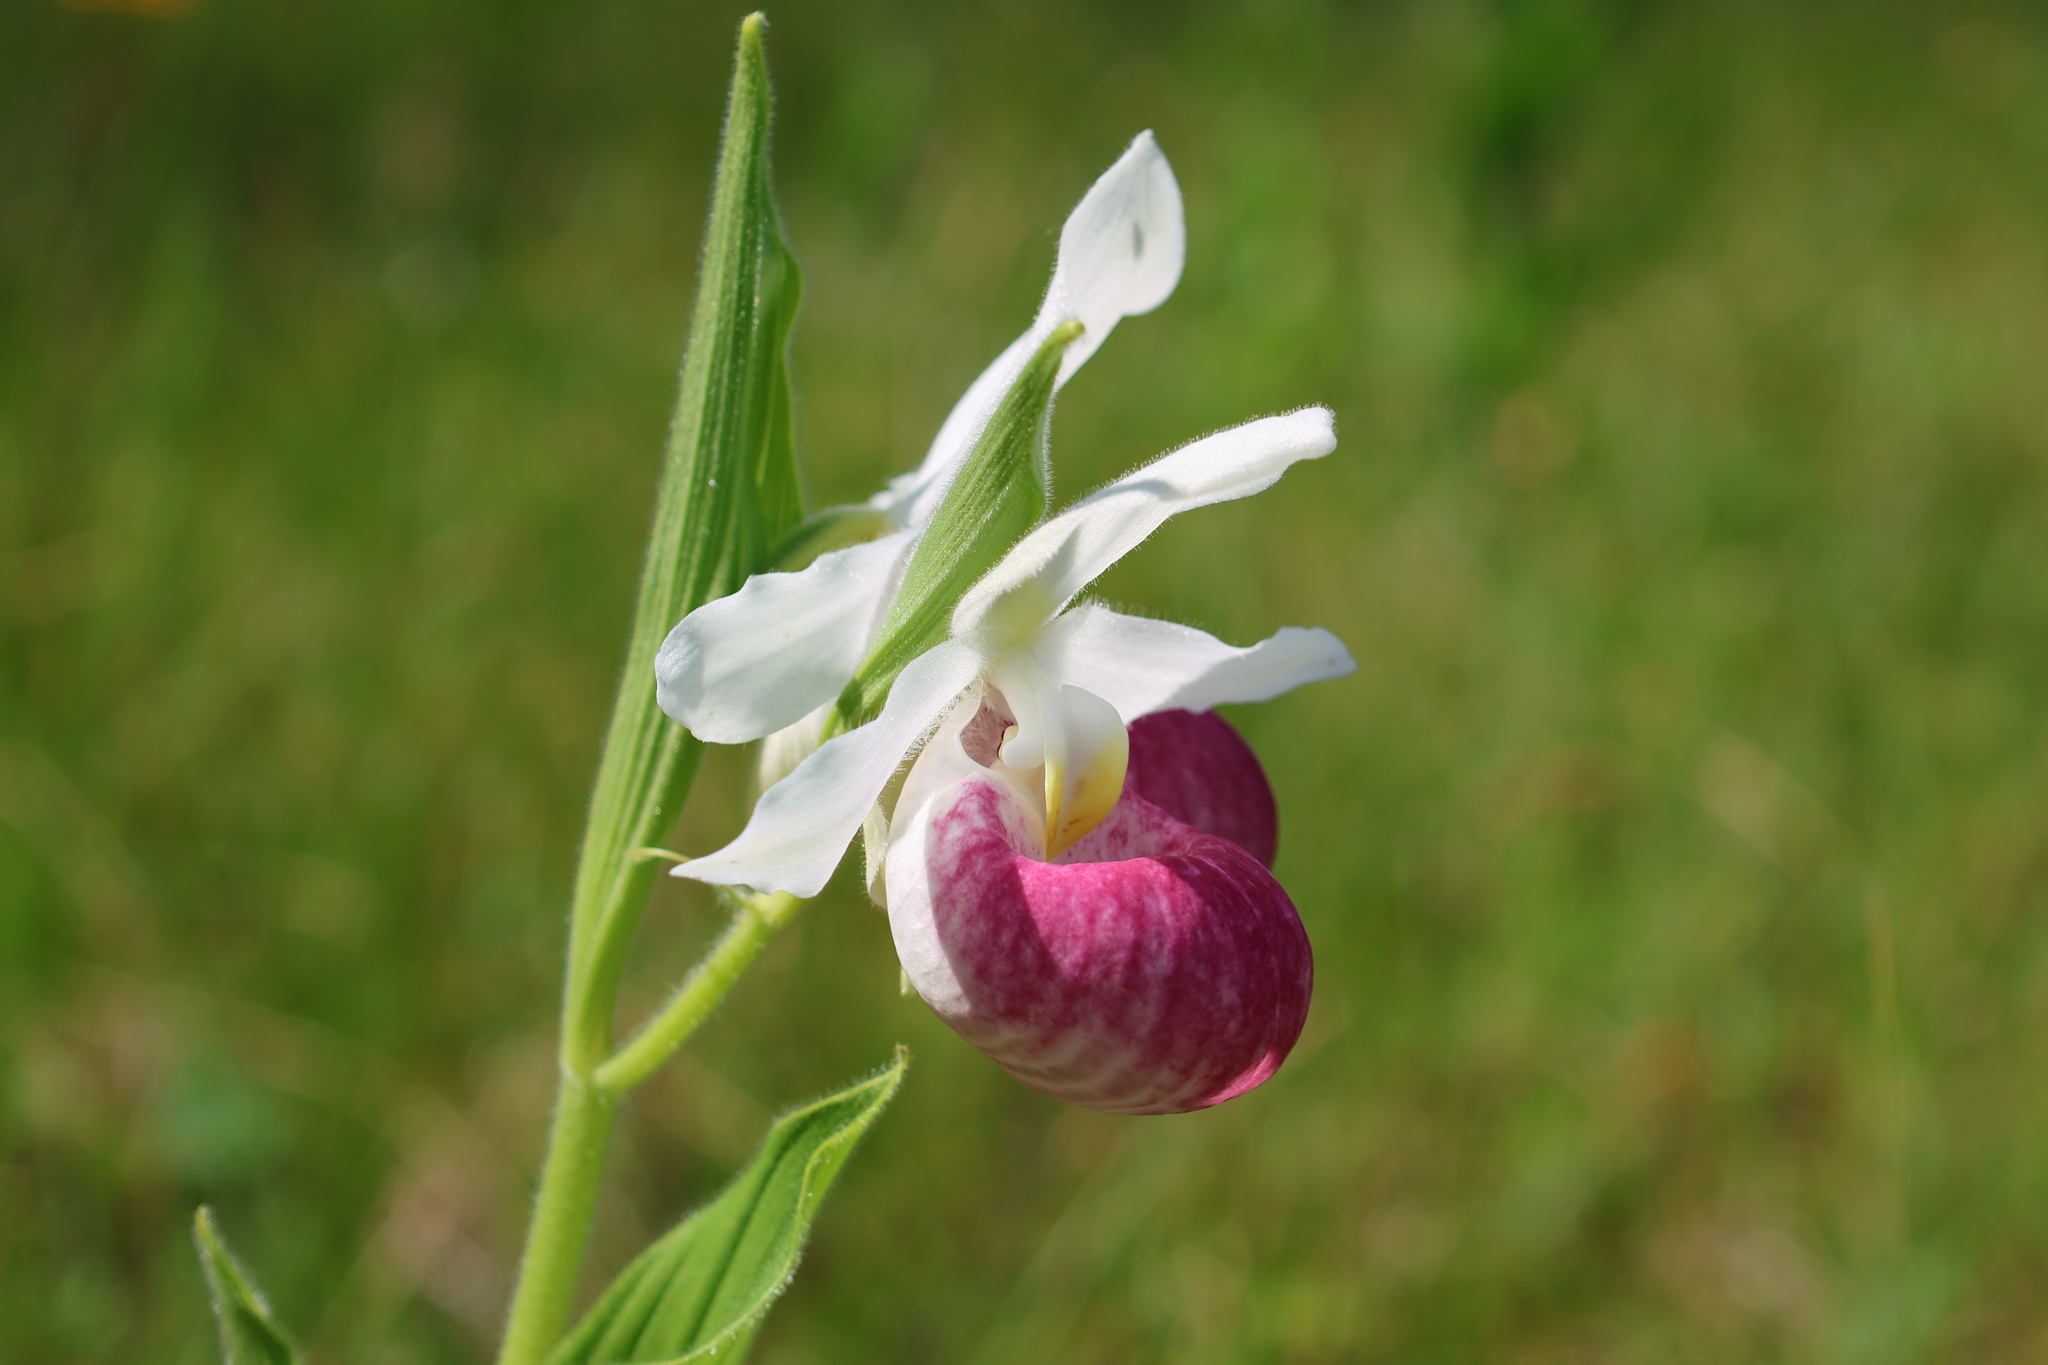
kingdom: Plantae
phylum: Tracheophyta
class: Liliopsida
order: Asparagales
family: Orchidaceae
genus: Cypripedium
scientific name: Cypripedium reginae
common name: Queen lady's-slipper
